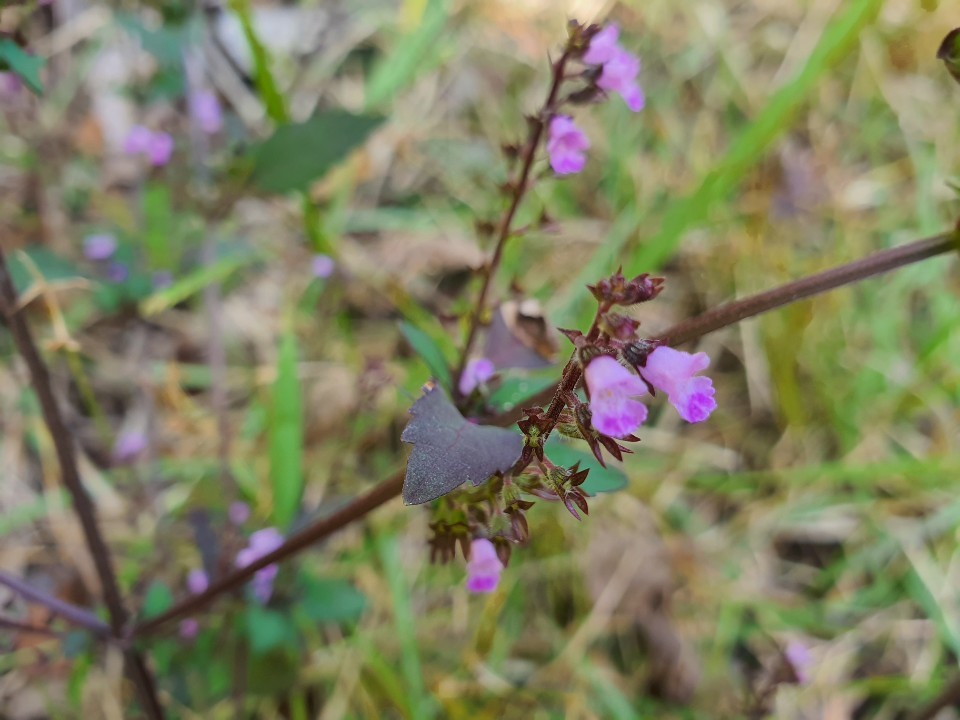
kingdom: Plantae
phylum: Tracheophyta
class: Magnoliopsida
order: Lamiales
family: Lamiaceae
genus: Perilla
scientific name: Perilla frutescens
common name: Perilla
